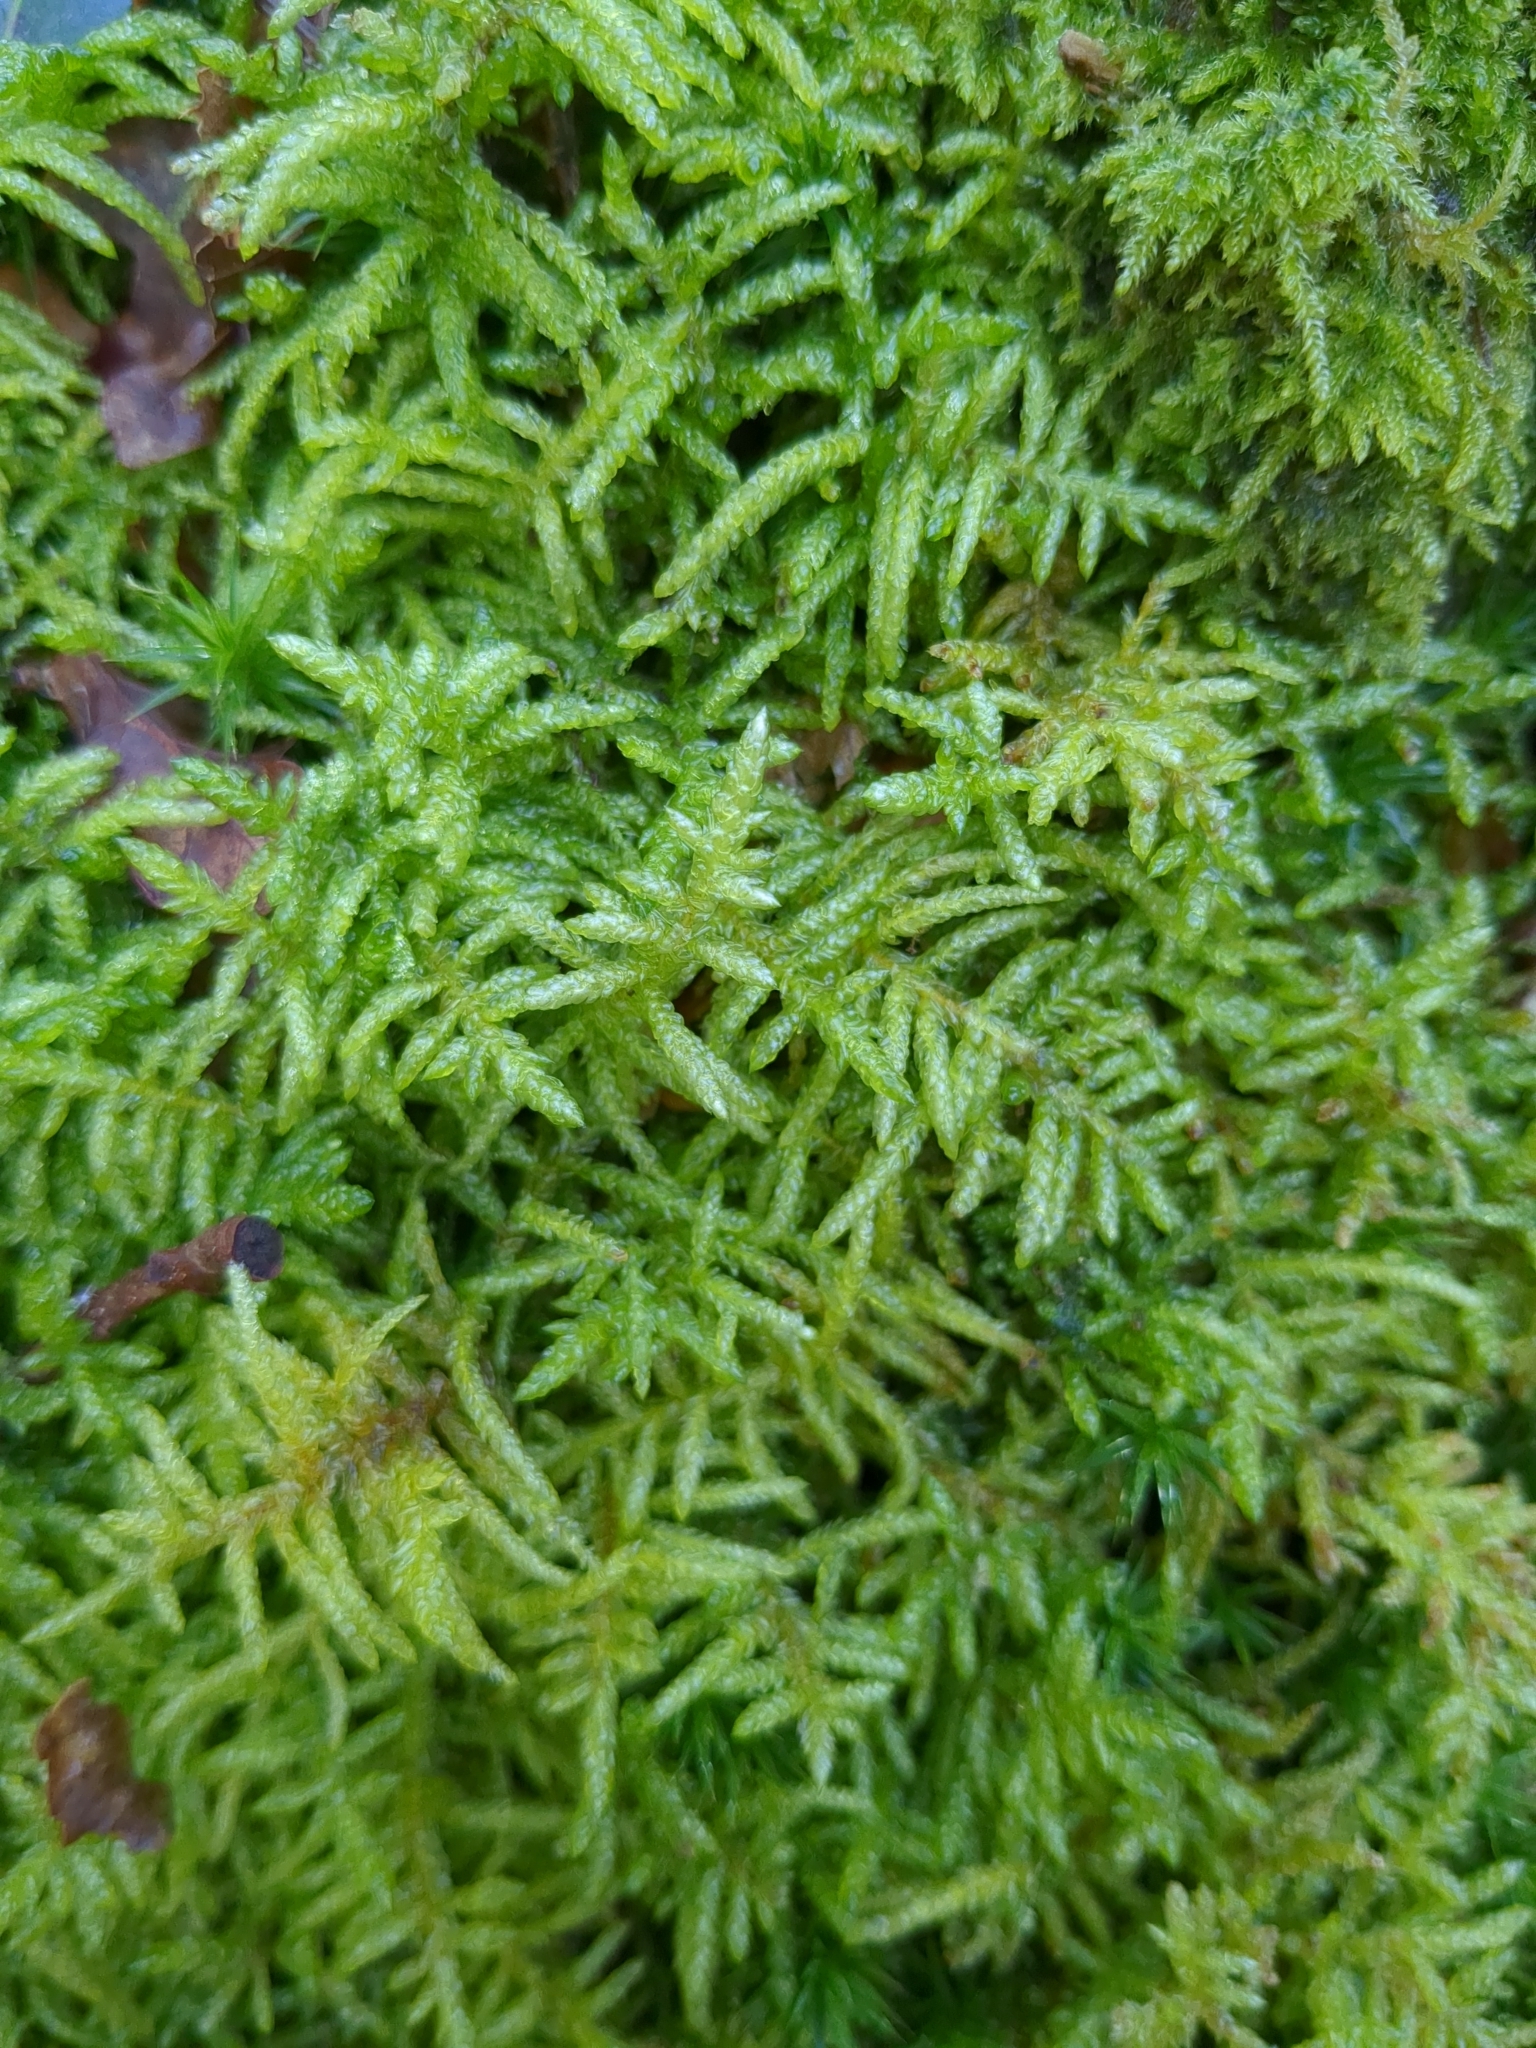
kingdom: Plantae
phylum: Bryophyta
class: Bryopsida
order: Hypnales
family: Brachytheciaceae
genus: Pseudoscleropodium
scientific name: Pseudoscleropodium purum
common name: Neat feather-moss
